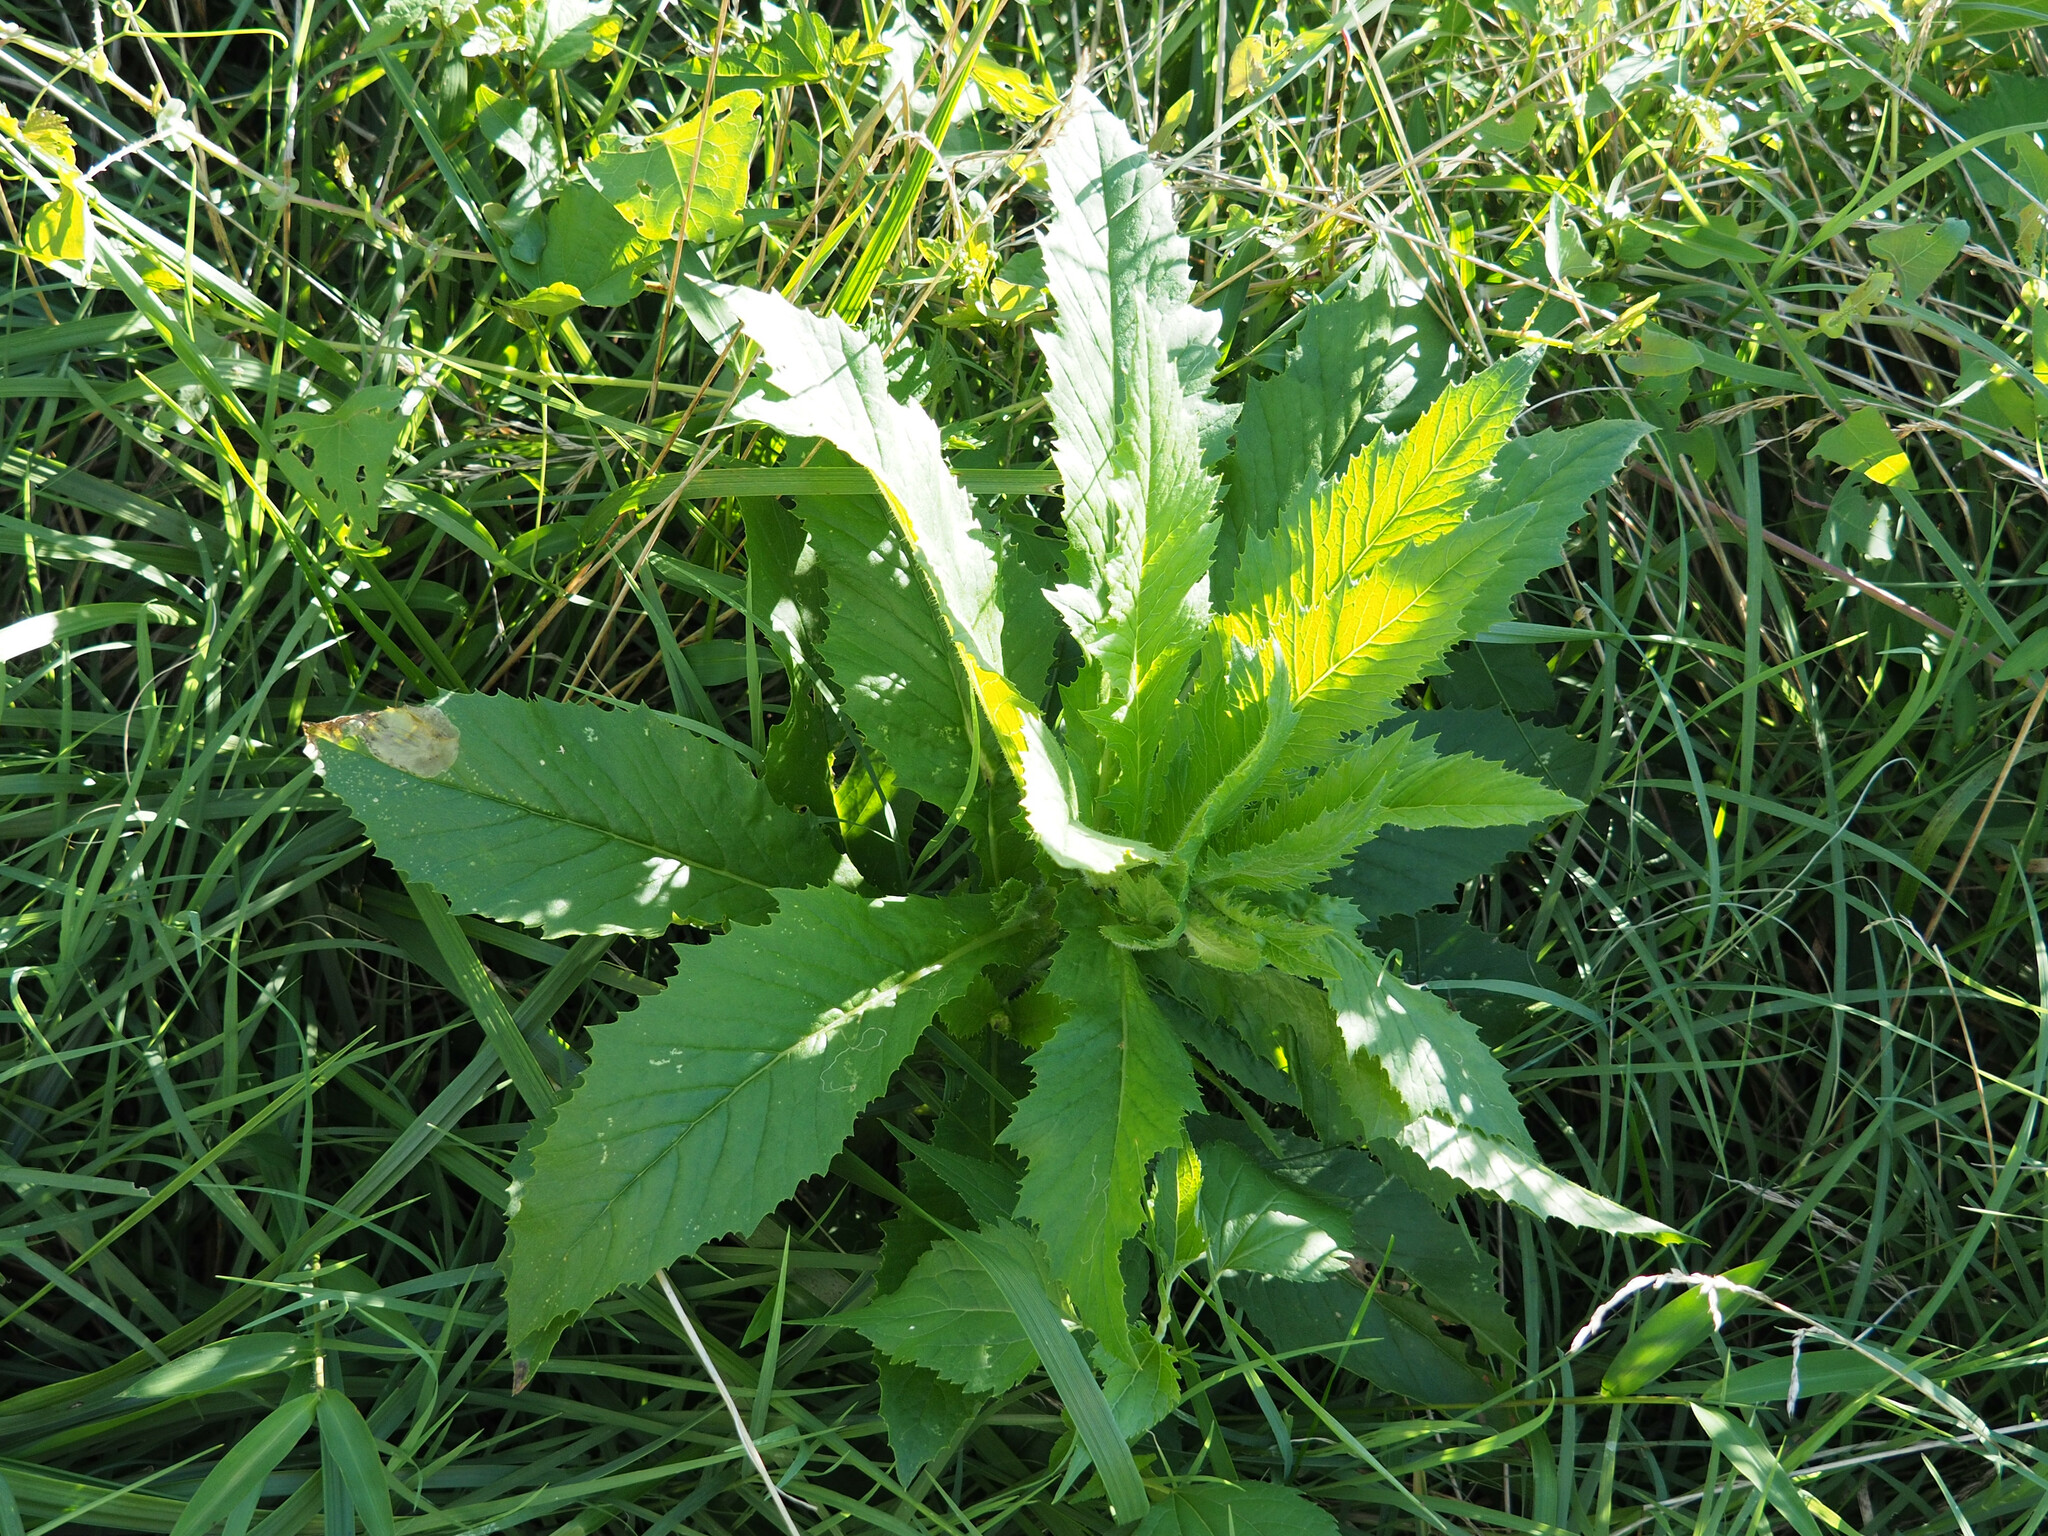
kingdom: Animalia
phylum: Arthropoda
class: Insecta
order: Diptera
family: Agromyzidae
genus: Nemorimyza
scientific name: Nemorimyza maculosa
